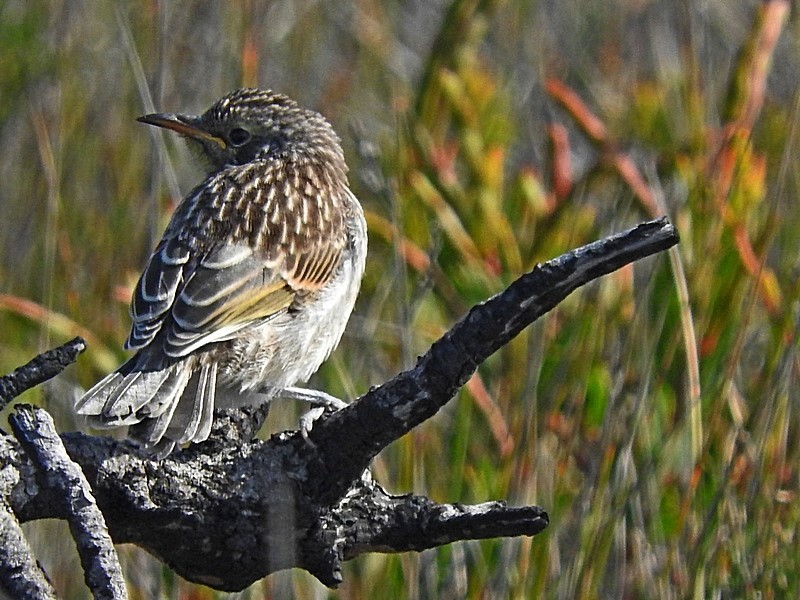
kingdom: Animalia
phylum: Chordata
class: Aves
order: Passeriformes
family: Meliphagidae
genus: Gliciphila
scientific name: Gliciphila melanops
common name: Tawny-crowned honeyeater
